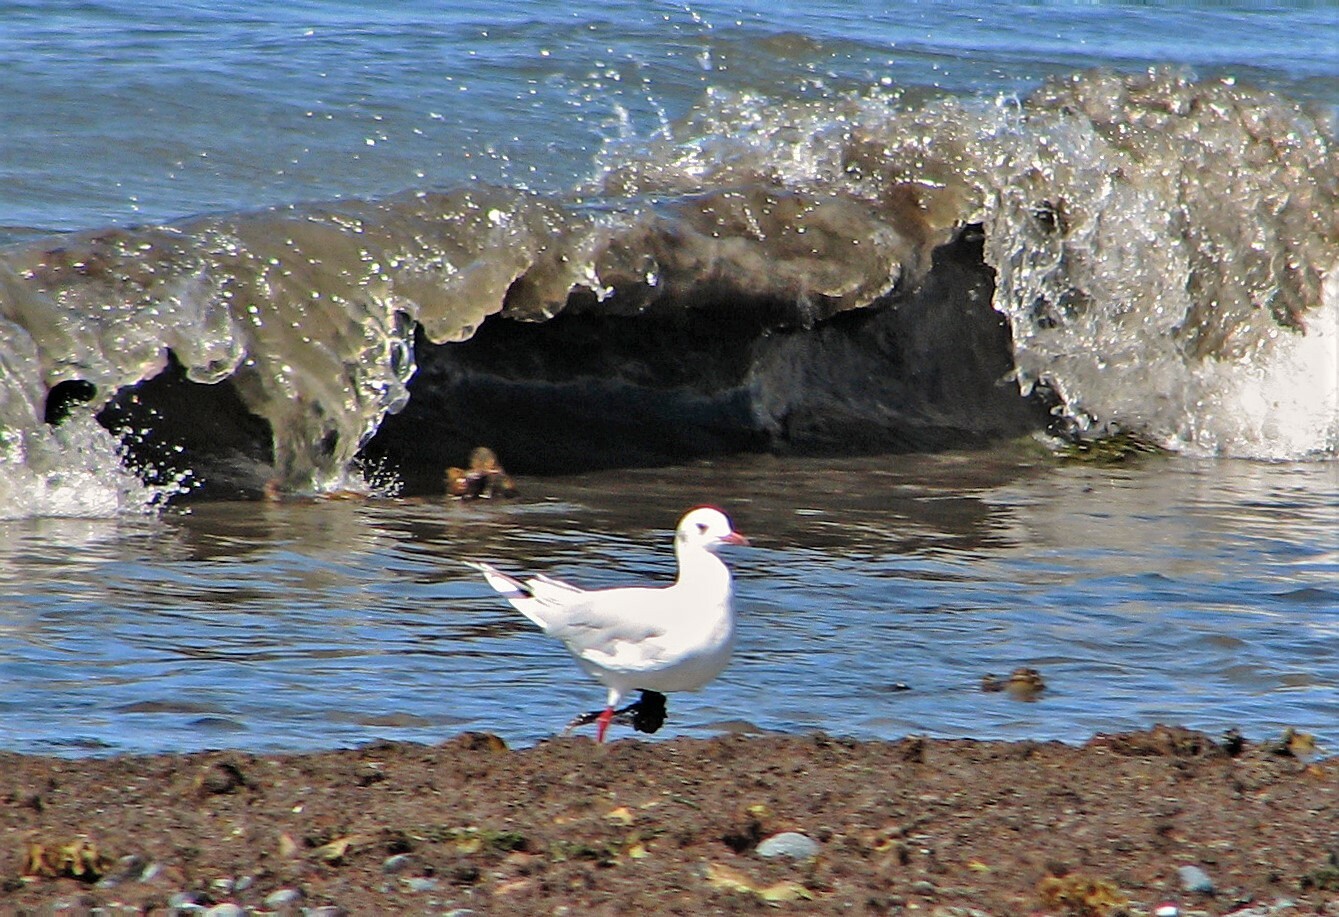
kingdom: Animalia
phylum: Chordata
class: Aves
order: Charadriiformes
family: Laridae
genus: Chroicocephalus
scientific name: Chroicocephalus maculipennis
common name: Brown-hooded gull
